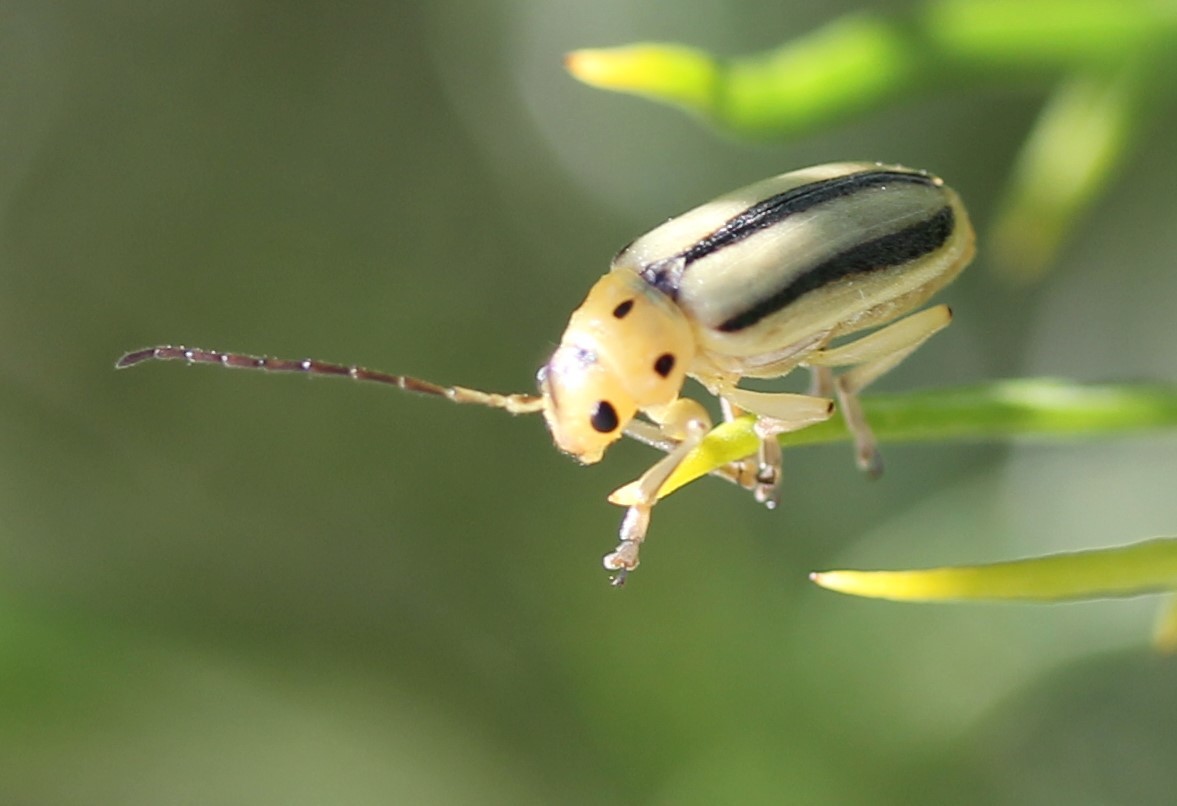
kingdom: Animalia
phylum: Arthropoda
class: Insecta
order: Coleoptera
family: Chrysomelidae
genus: Trirhabda
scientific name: Trirhabda nitidicollis
